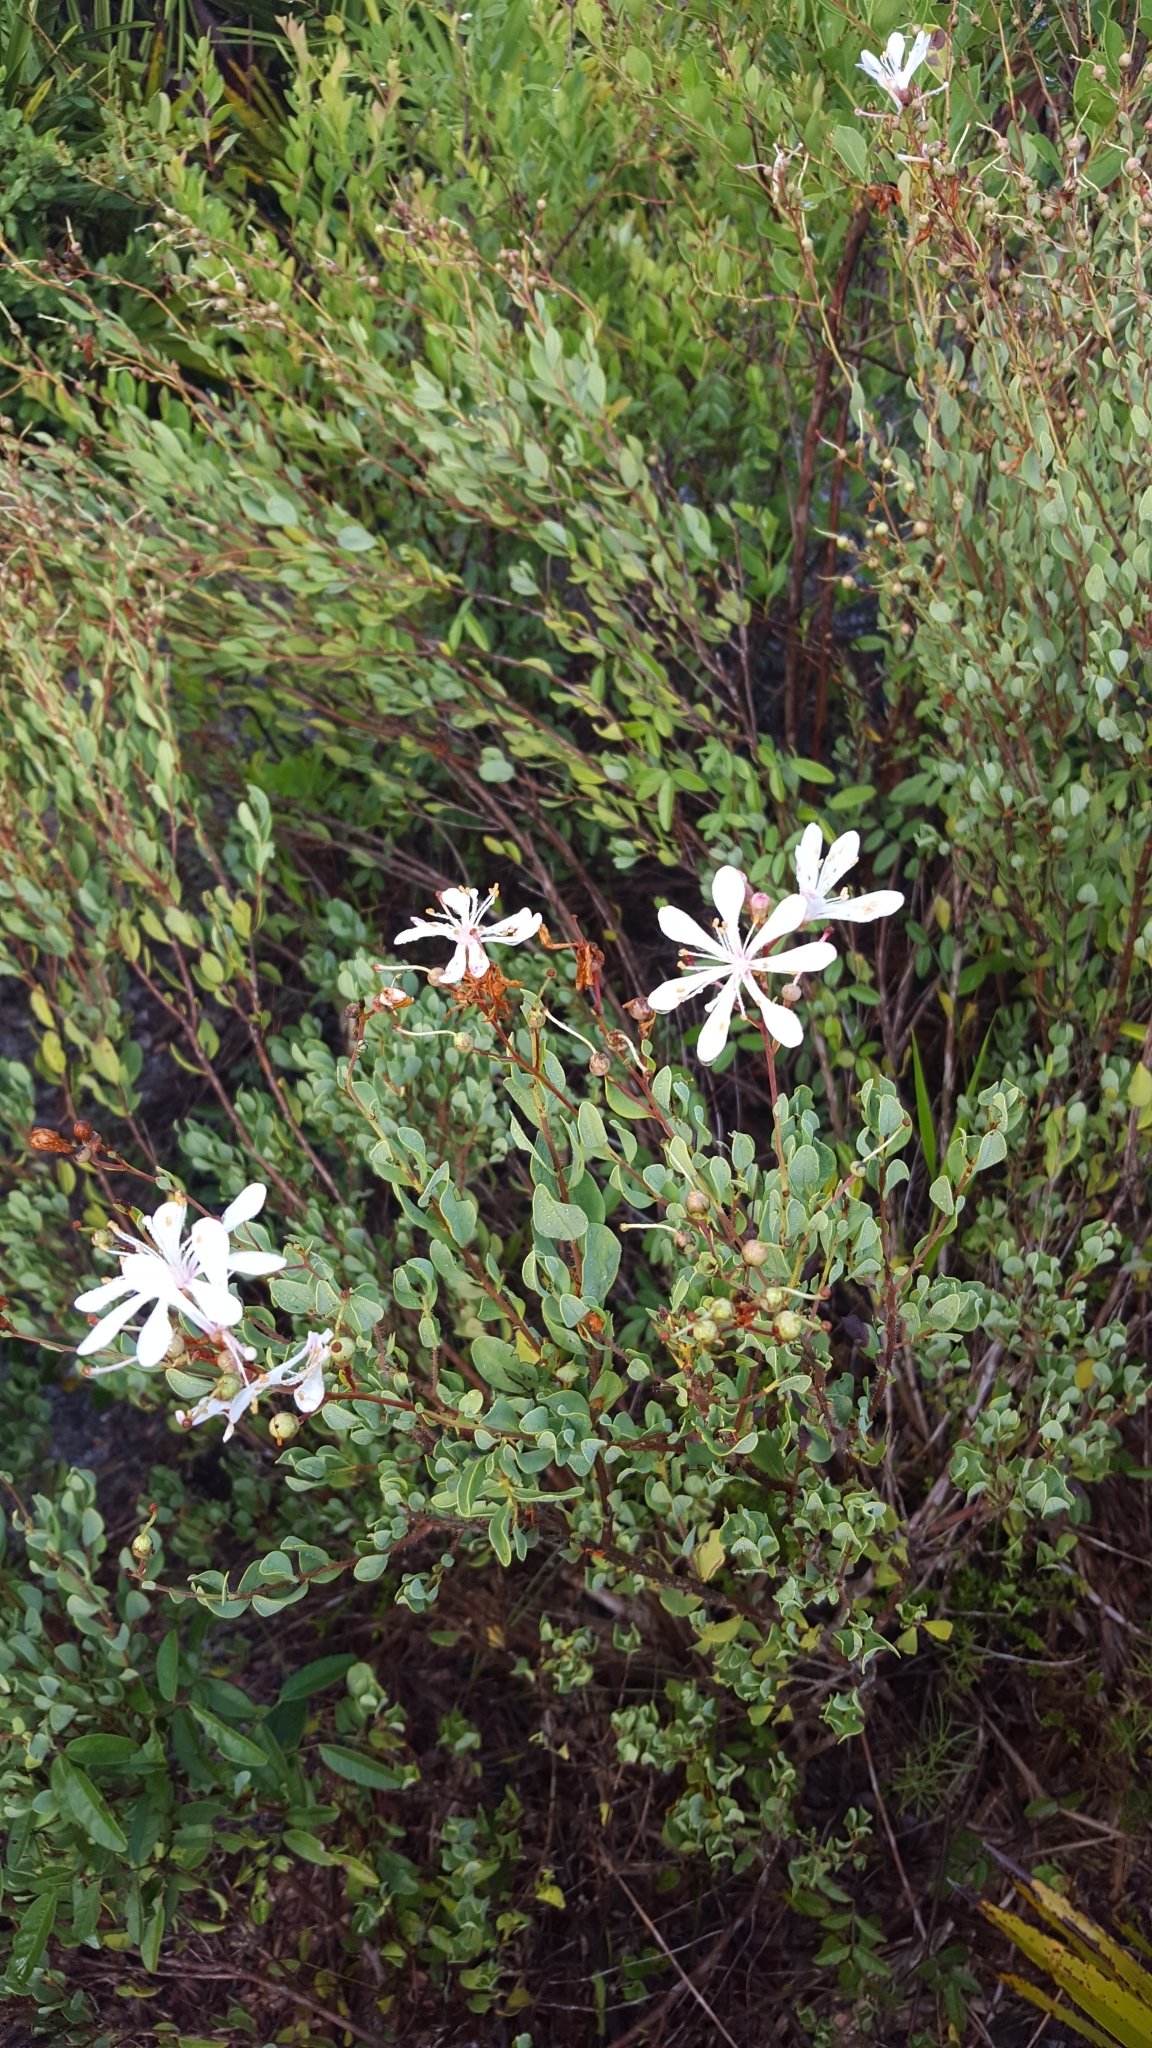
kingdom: Plantae
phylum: Tracheophyta
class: Magnoliopsida
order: Ericales
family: Ericaceae
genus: Bejaria
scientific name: Bejaria racemosa
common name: Tarflower
